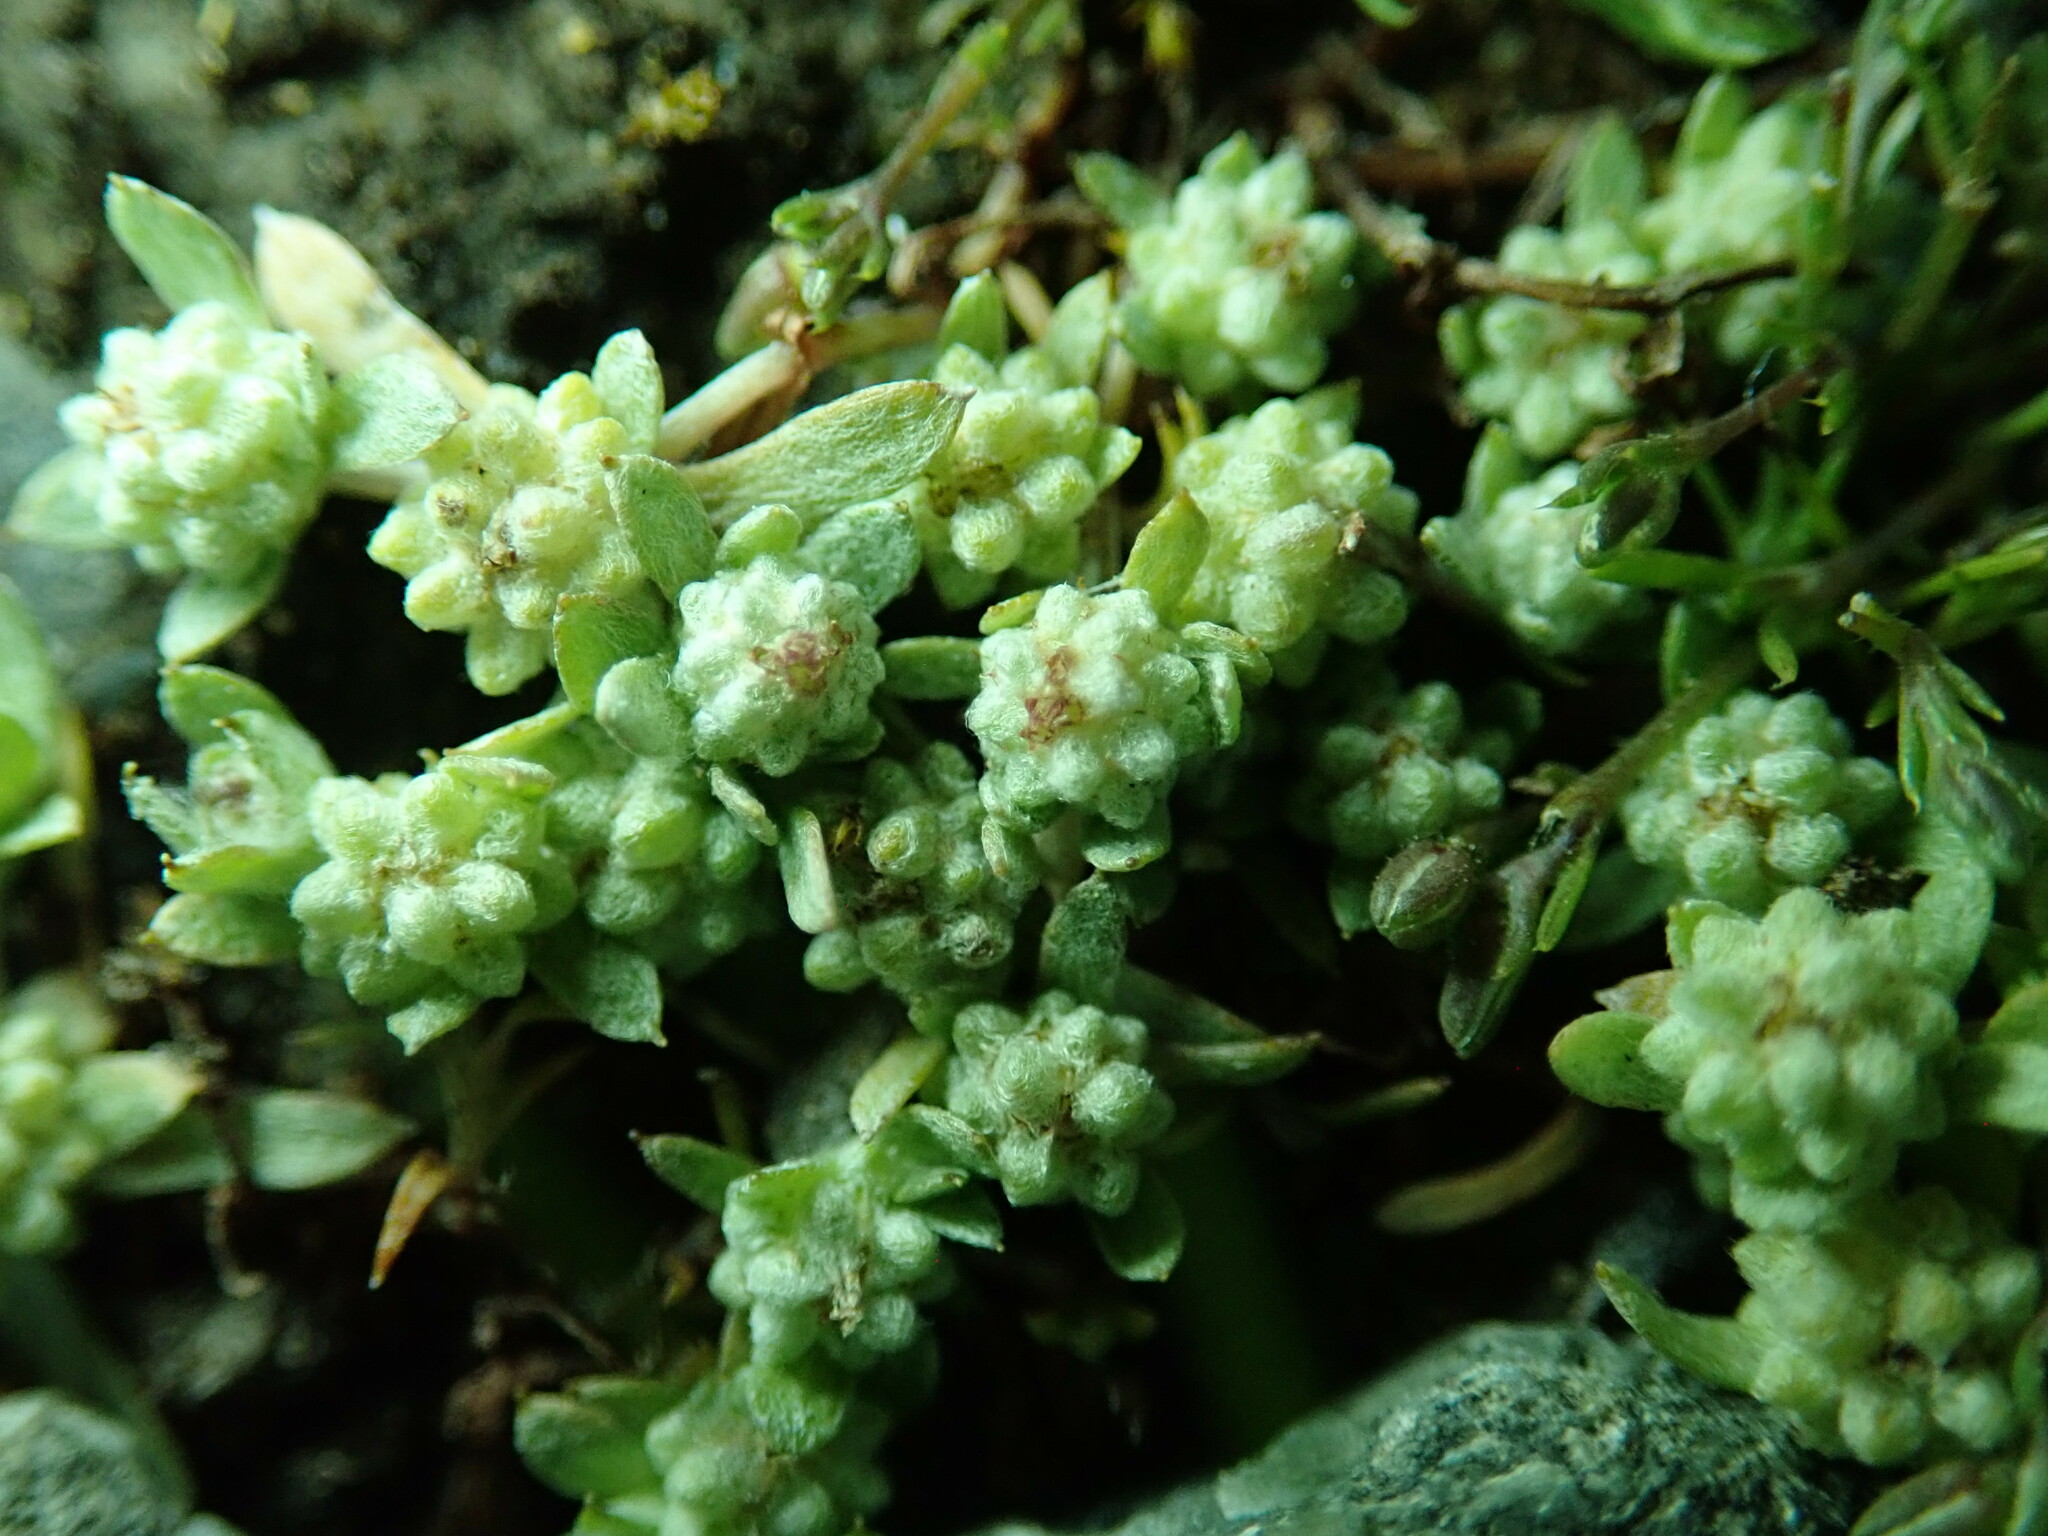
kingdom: Plantae
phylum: Tracheophyta
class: Magnoliopsida
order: Asterales
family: Asteraceae
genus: Psilocarphus
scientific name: Psilocarphus tenellus
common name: Slender woolly-marbles
